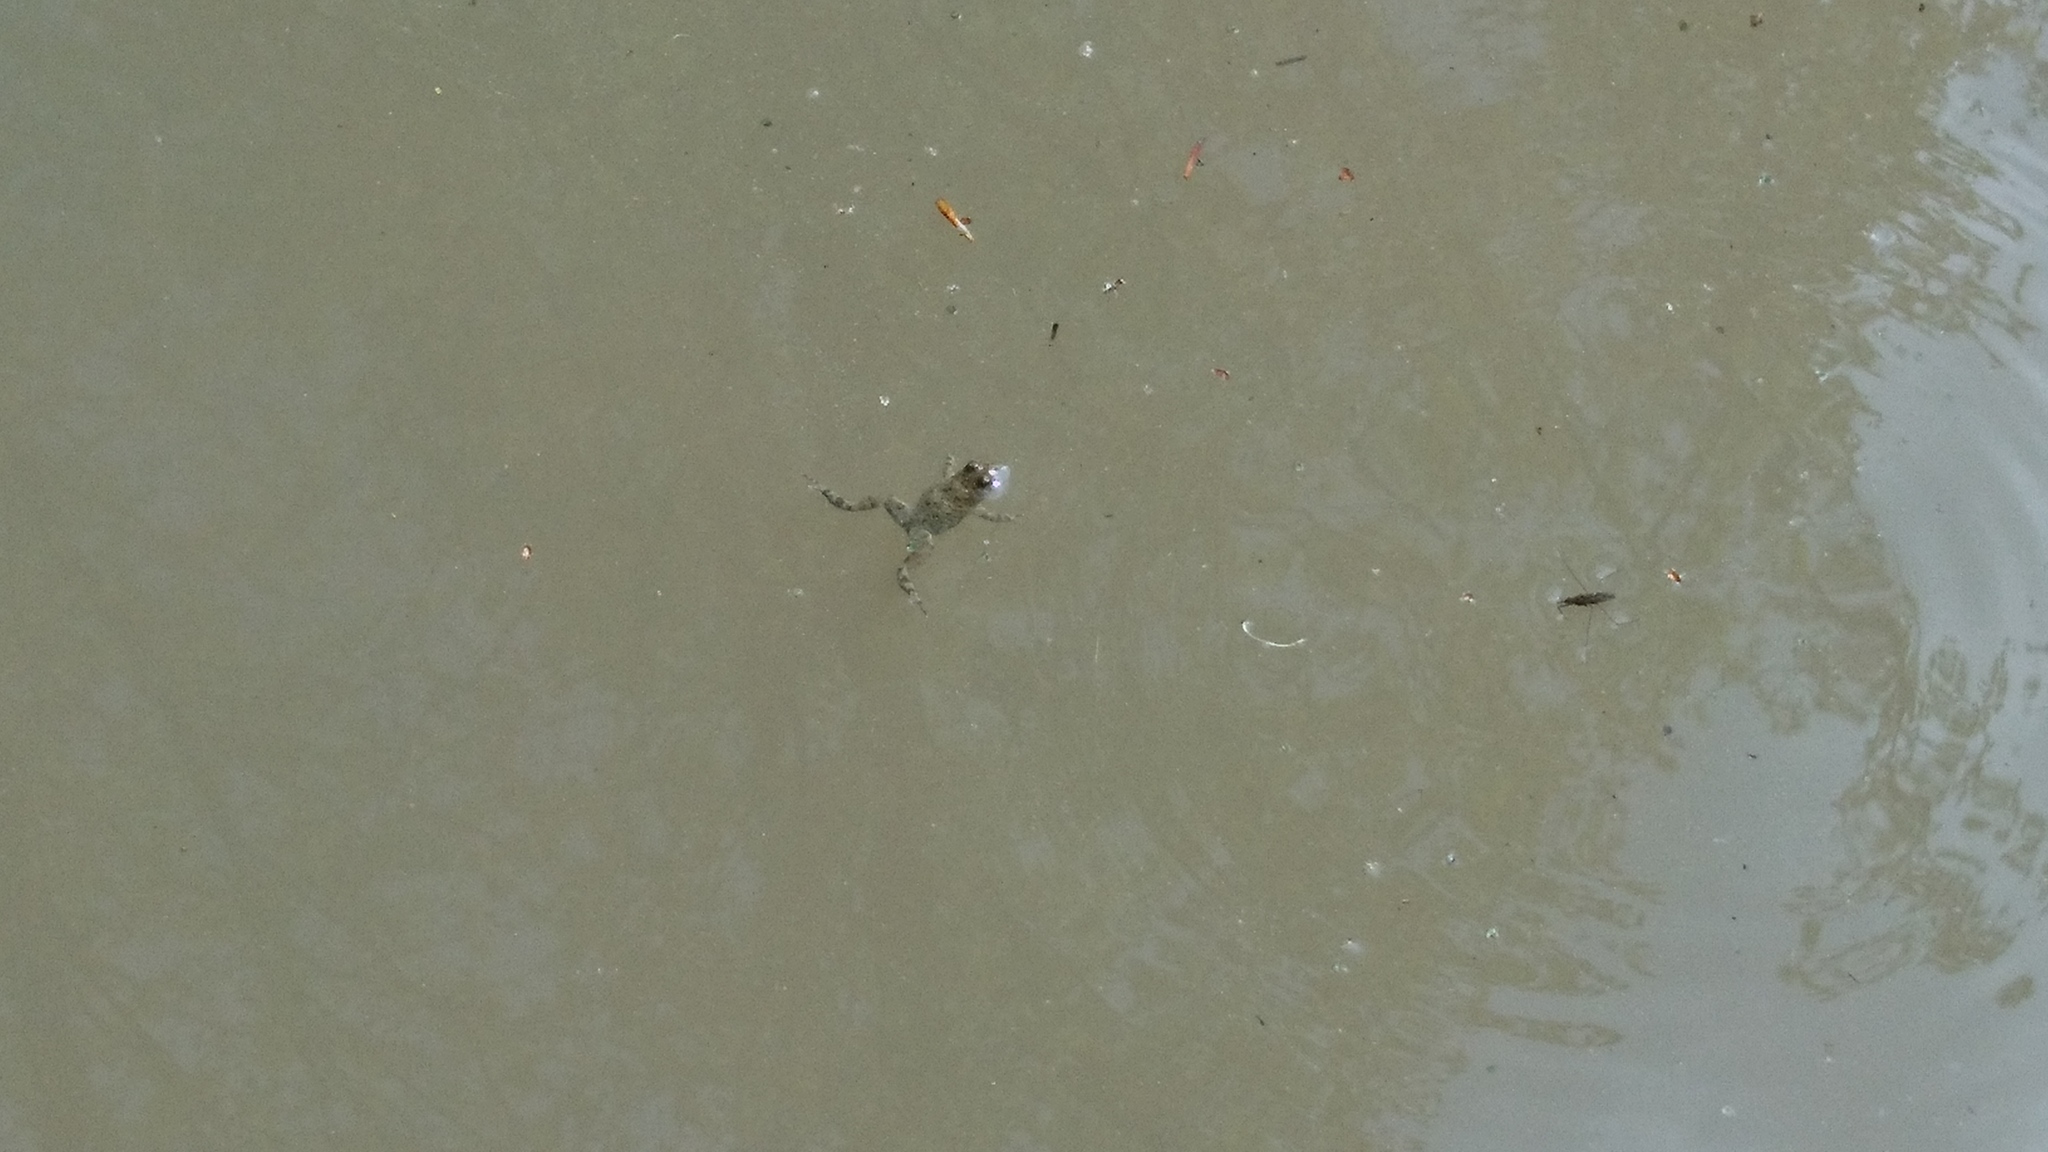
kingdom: Animalia
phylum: Chordata
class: Amphibia
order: Anura
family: Bombinatoridae
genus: Bombina
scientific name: Bombina variegata
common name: Yellow-bellied toad
